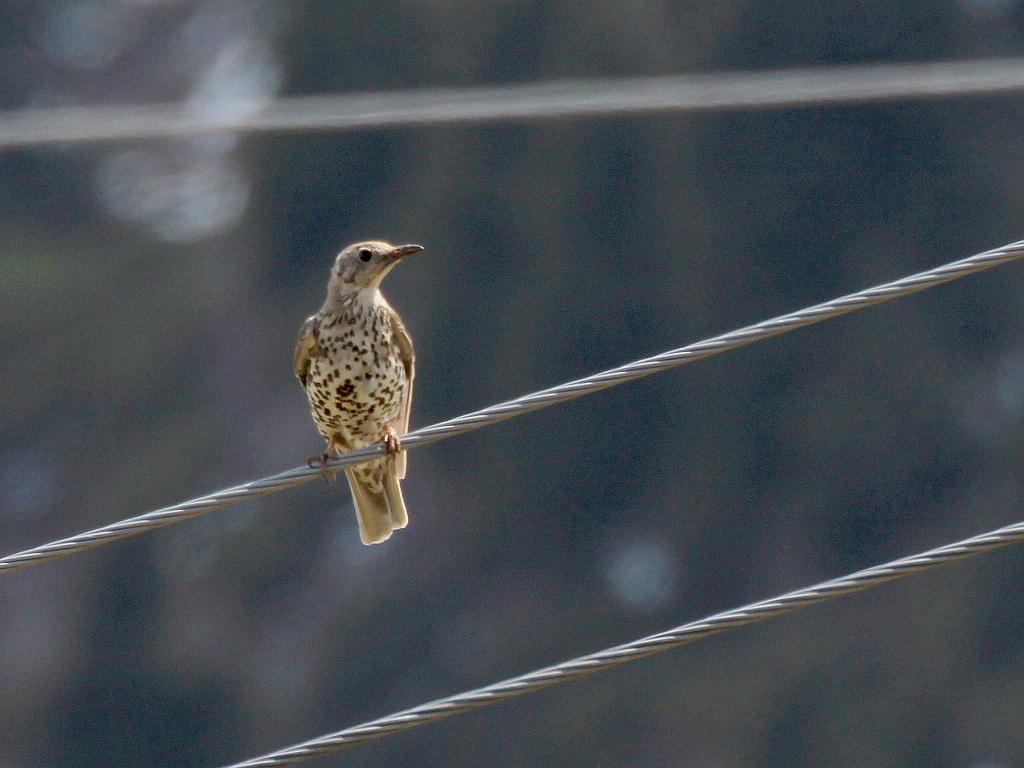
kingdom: Animalia
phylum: Chordata
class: Aves
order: Passeriformes
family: Turdidae
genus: Turdus
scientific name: Turdus viscivorus
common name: Mistle thrush
